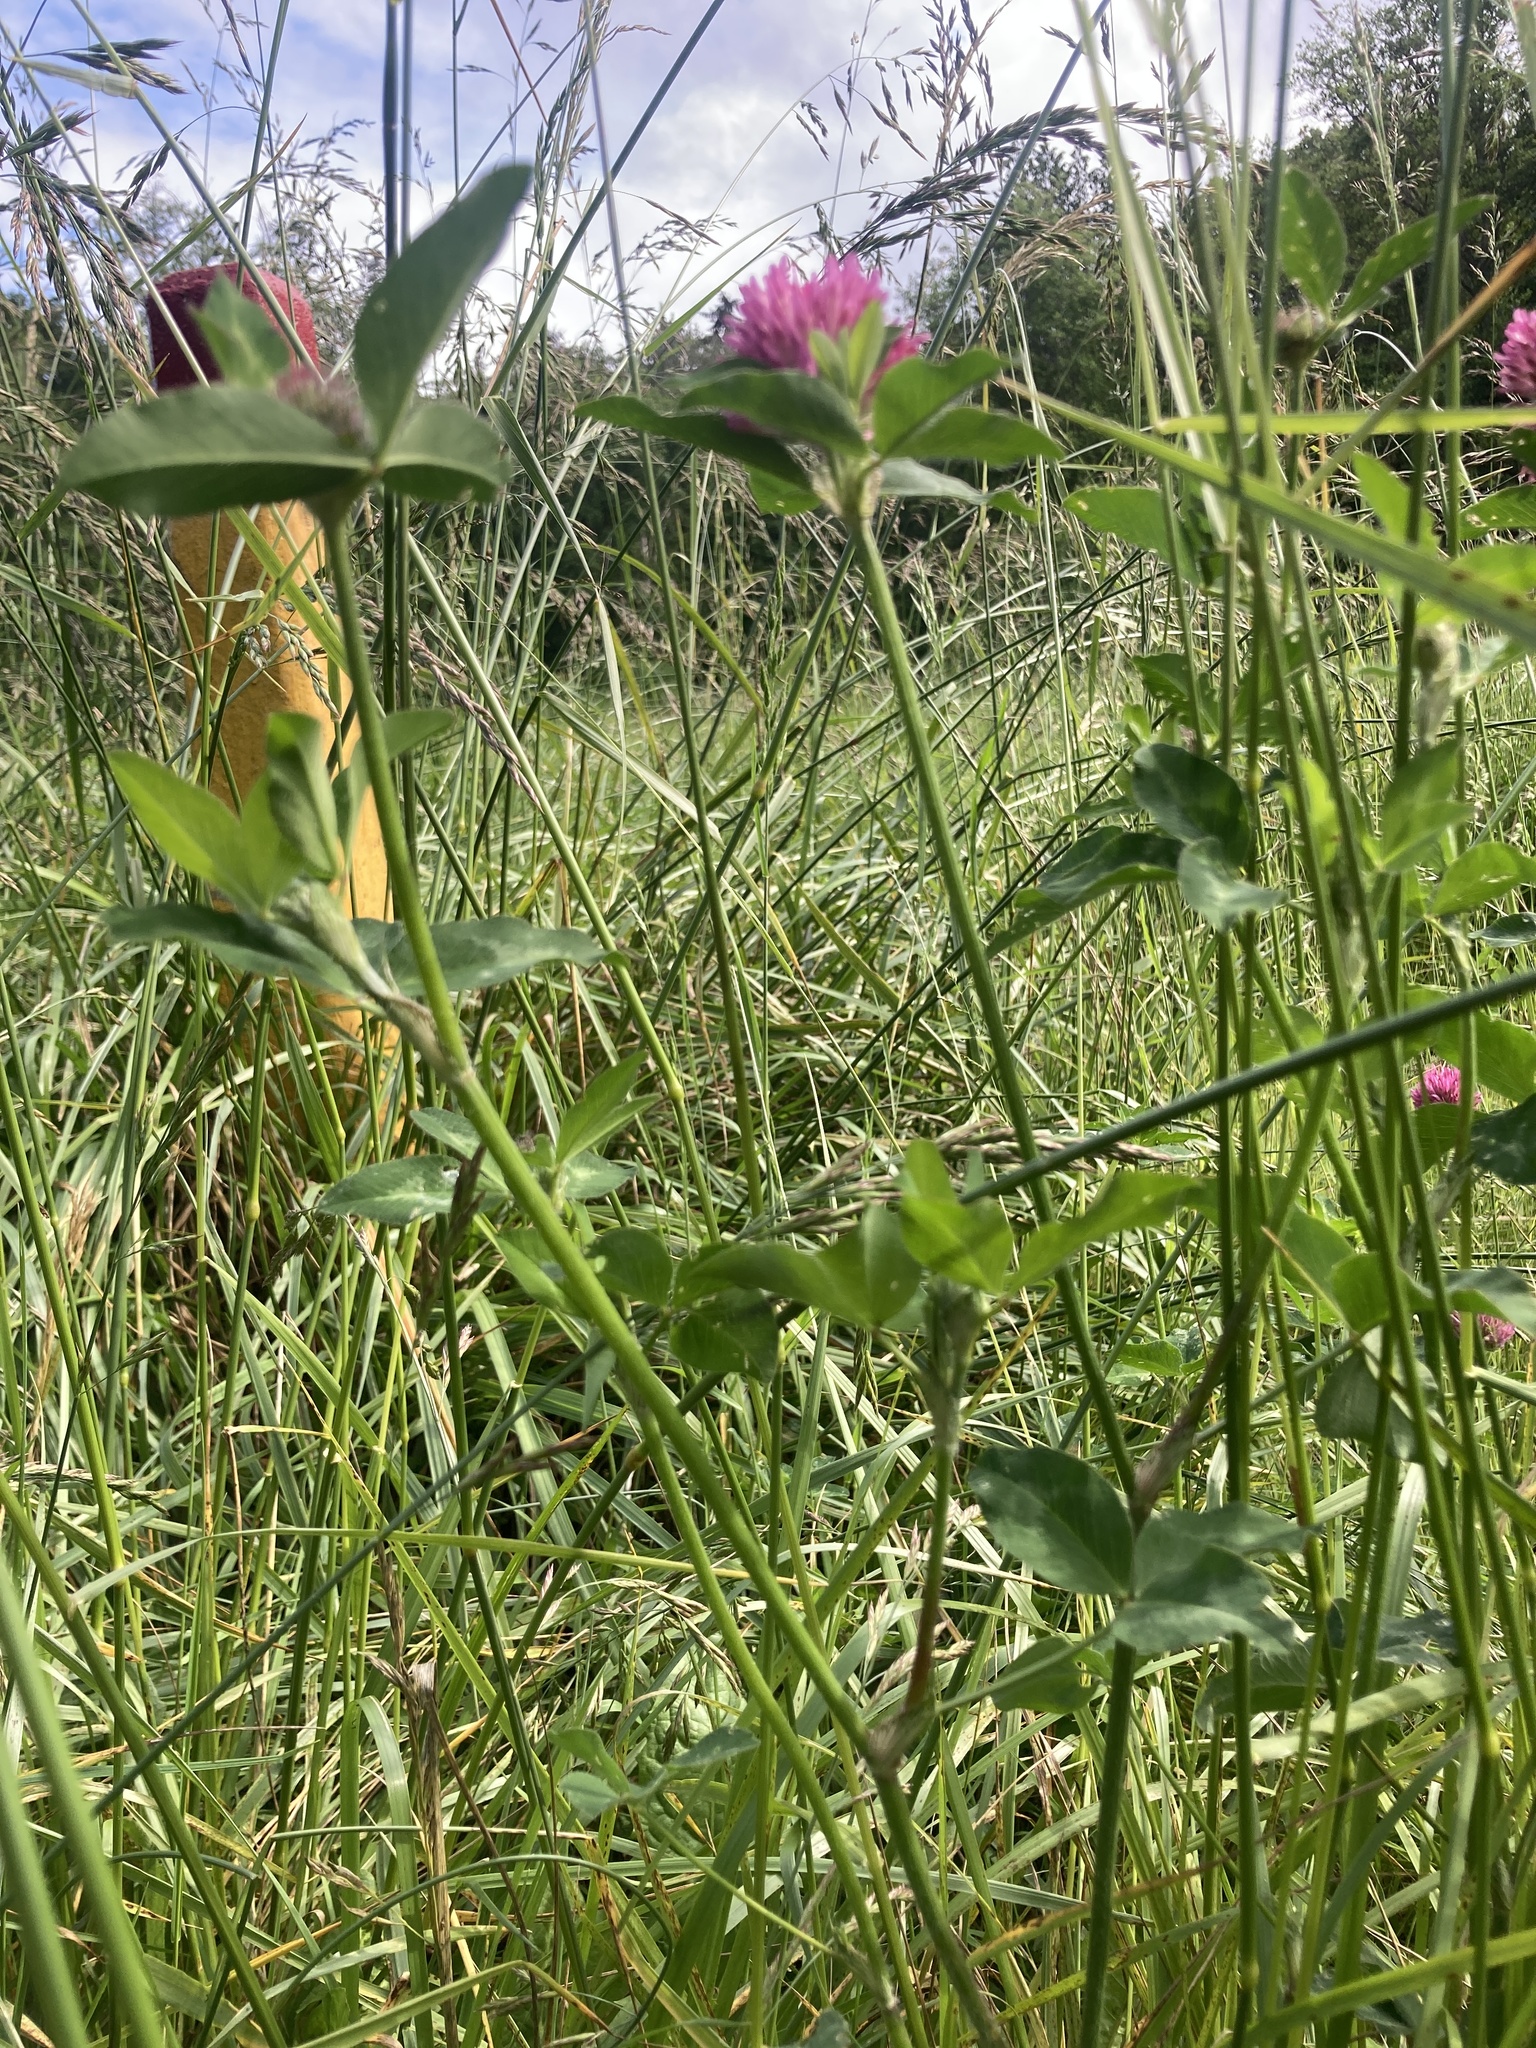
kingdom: Plantae
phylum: Tracheophyta
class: Magnoliopsida
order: Fabales
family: Fabaceae
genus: Trifolium
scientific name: Trifolium pratense
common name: Red clover
